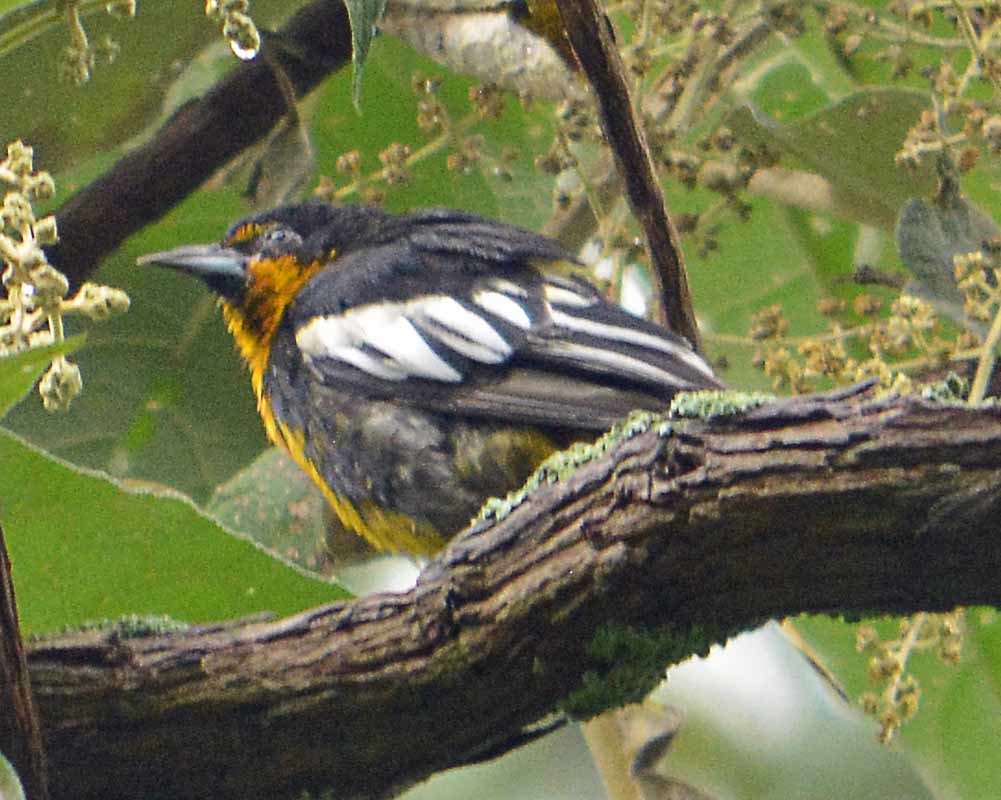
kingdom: Animalia
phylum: Chordata
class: Aves
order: Passeriformes
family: Icteridae
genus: Icterus
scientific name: Icterus abeillei
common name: Black-backed oriole
